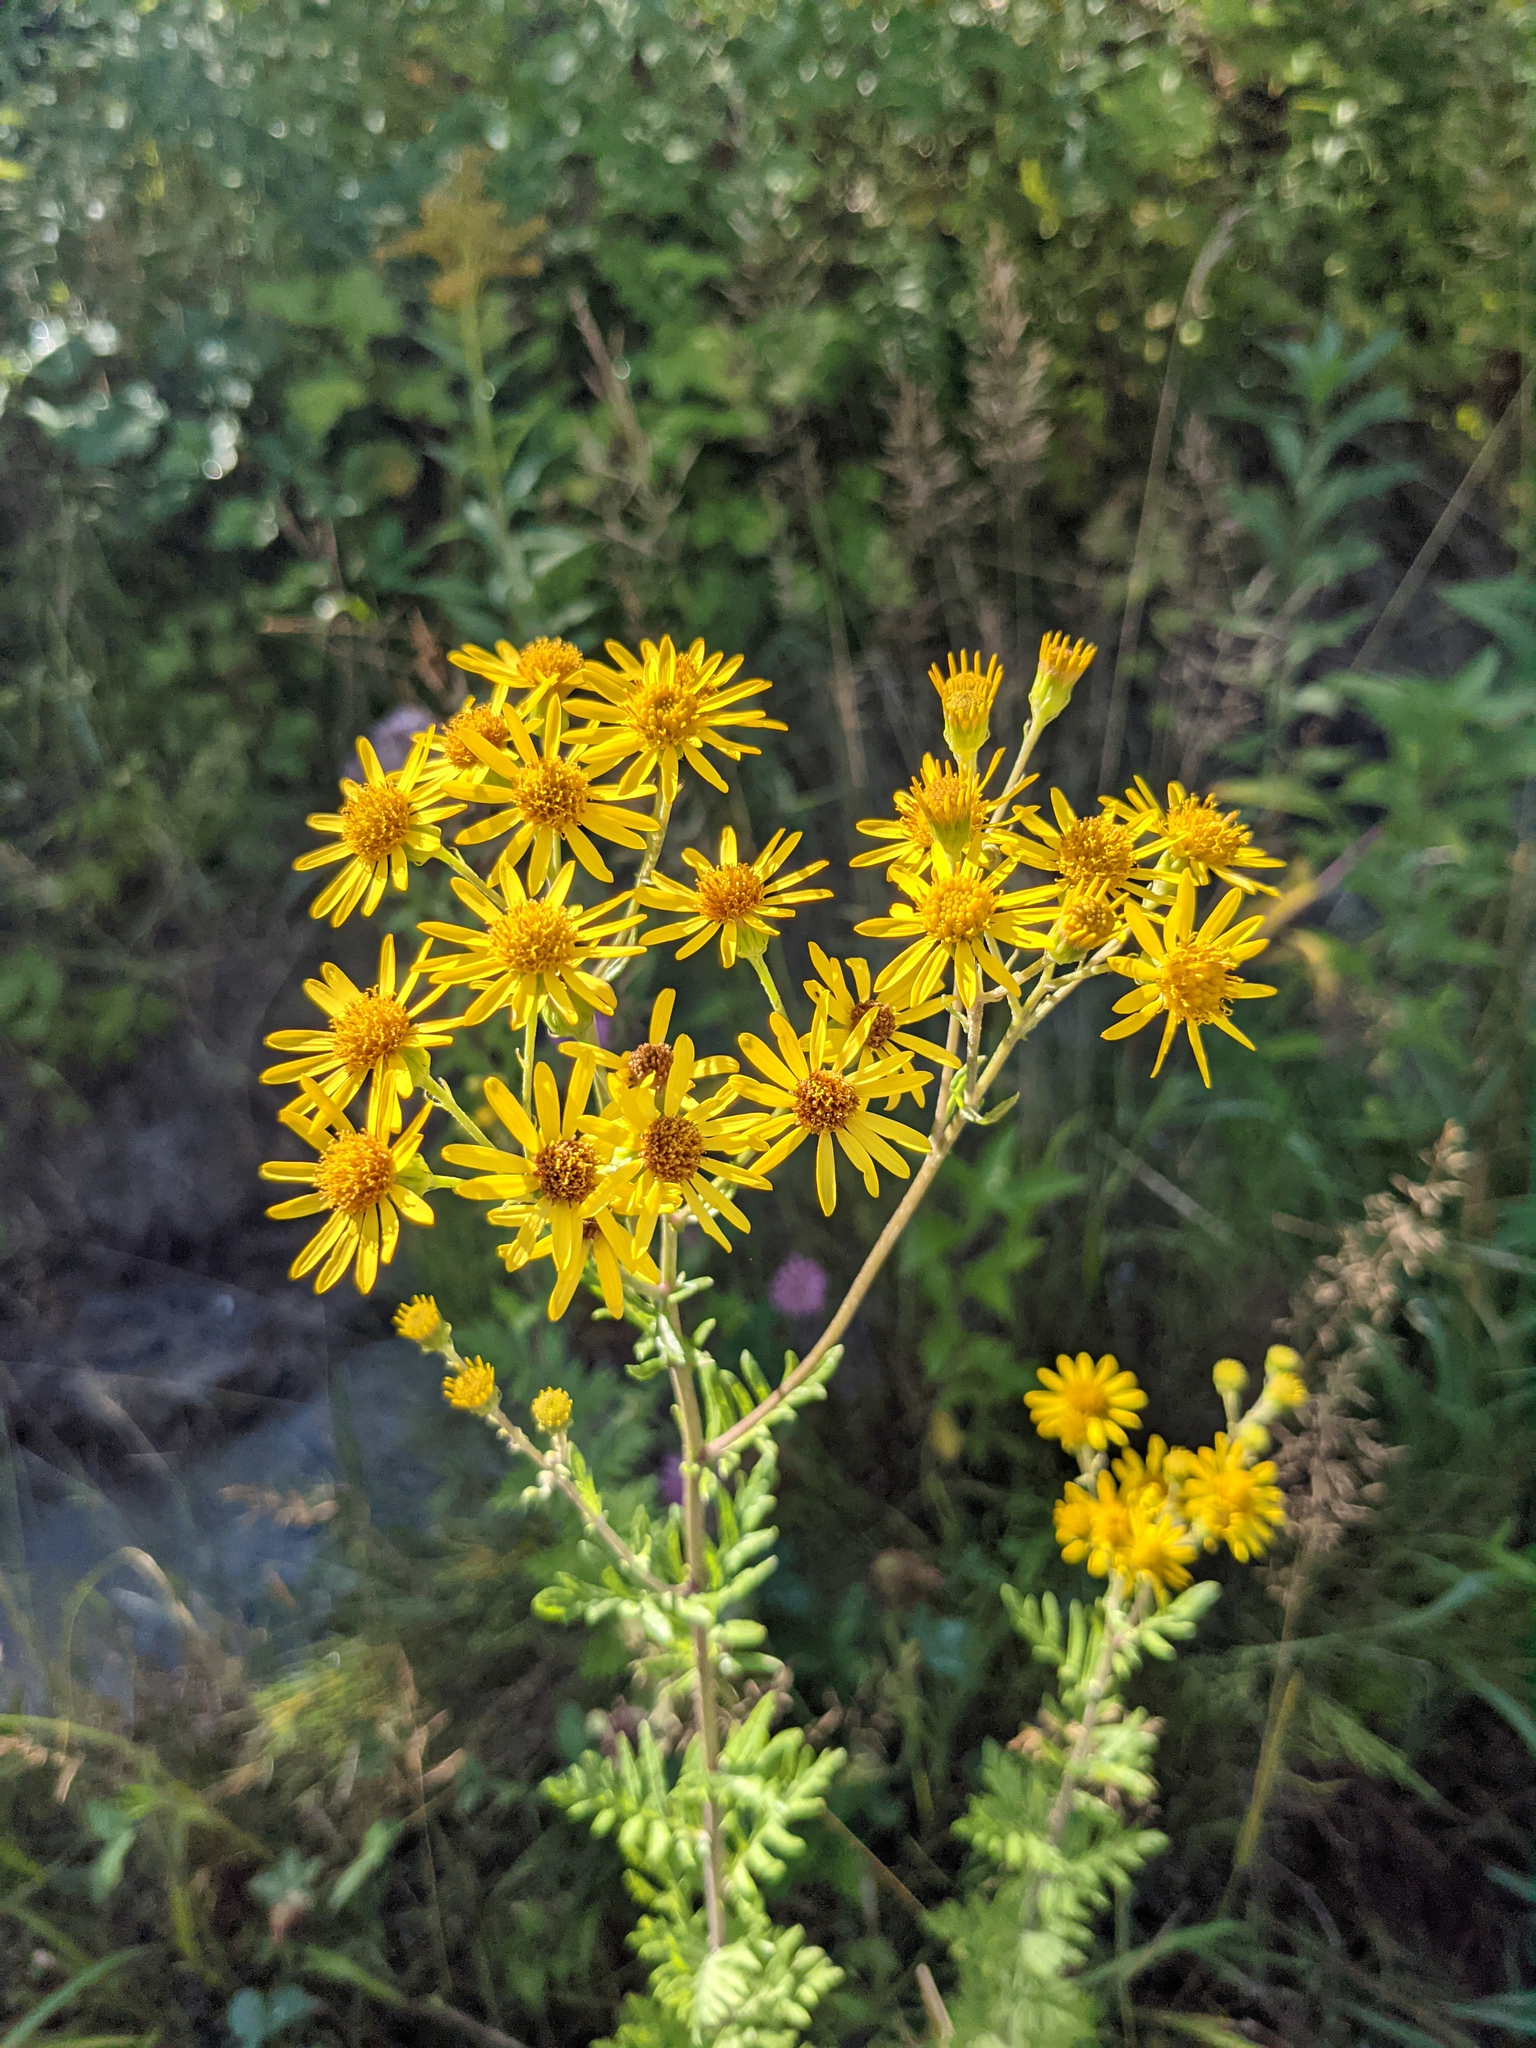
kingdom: Plantae
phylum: Tracheophyta
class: Magnoliopsida
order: Asterales
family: Asteraceae
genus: Jacobaea
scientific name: Jacobaea erucifolia
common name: Hoary ragwort
